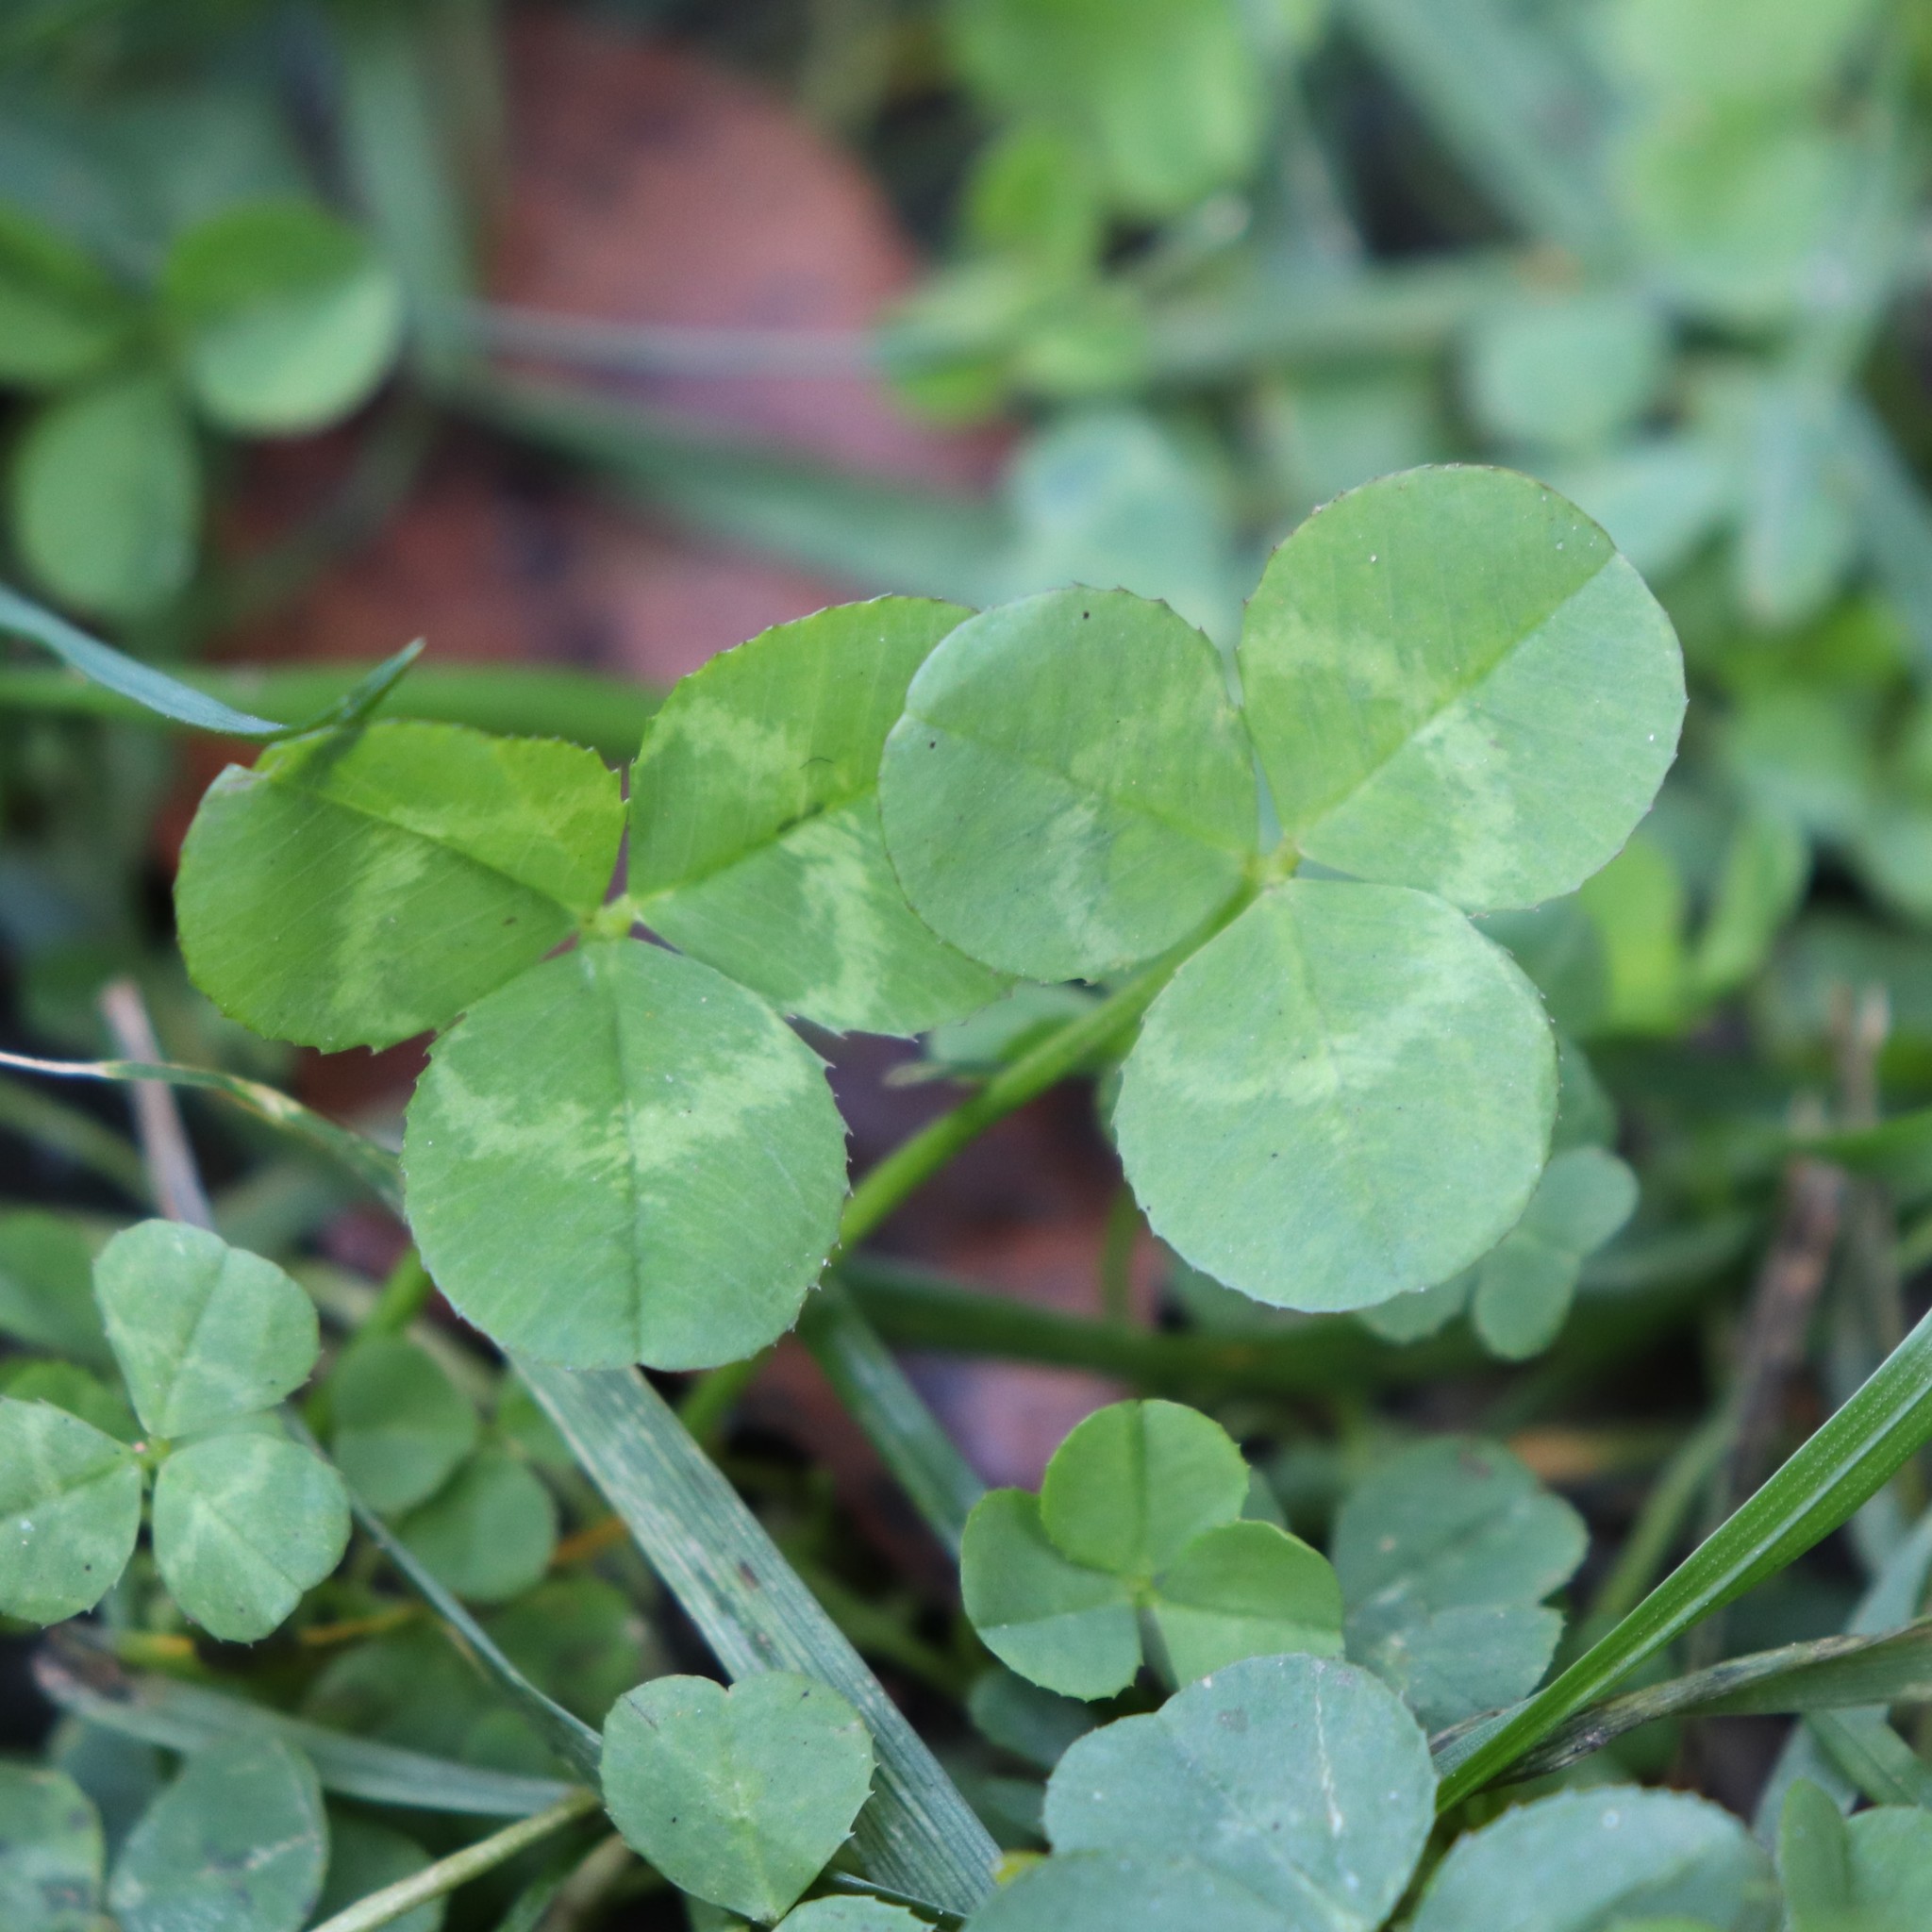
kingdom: Plantae
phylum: Tracheophyta
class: Magnoliopsida
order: Fabales
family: Fabaceae
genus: Trifolium
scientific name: Trifolium repens
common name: White clover
